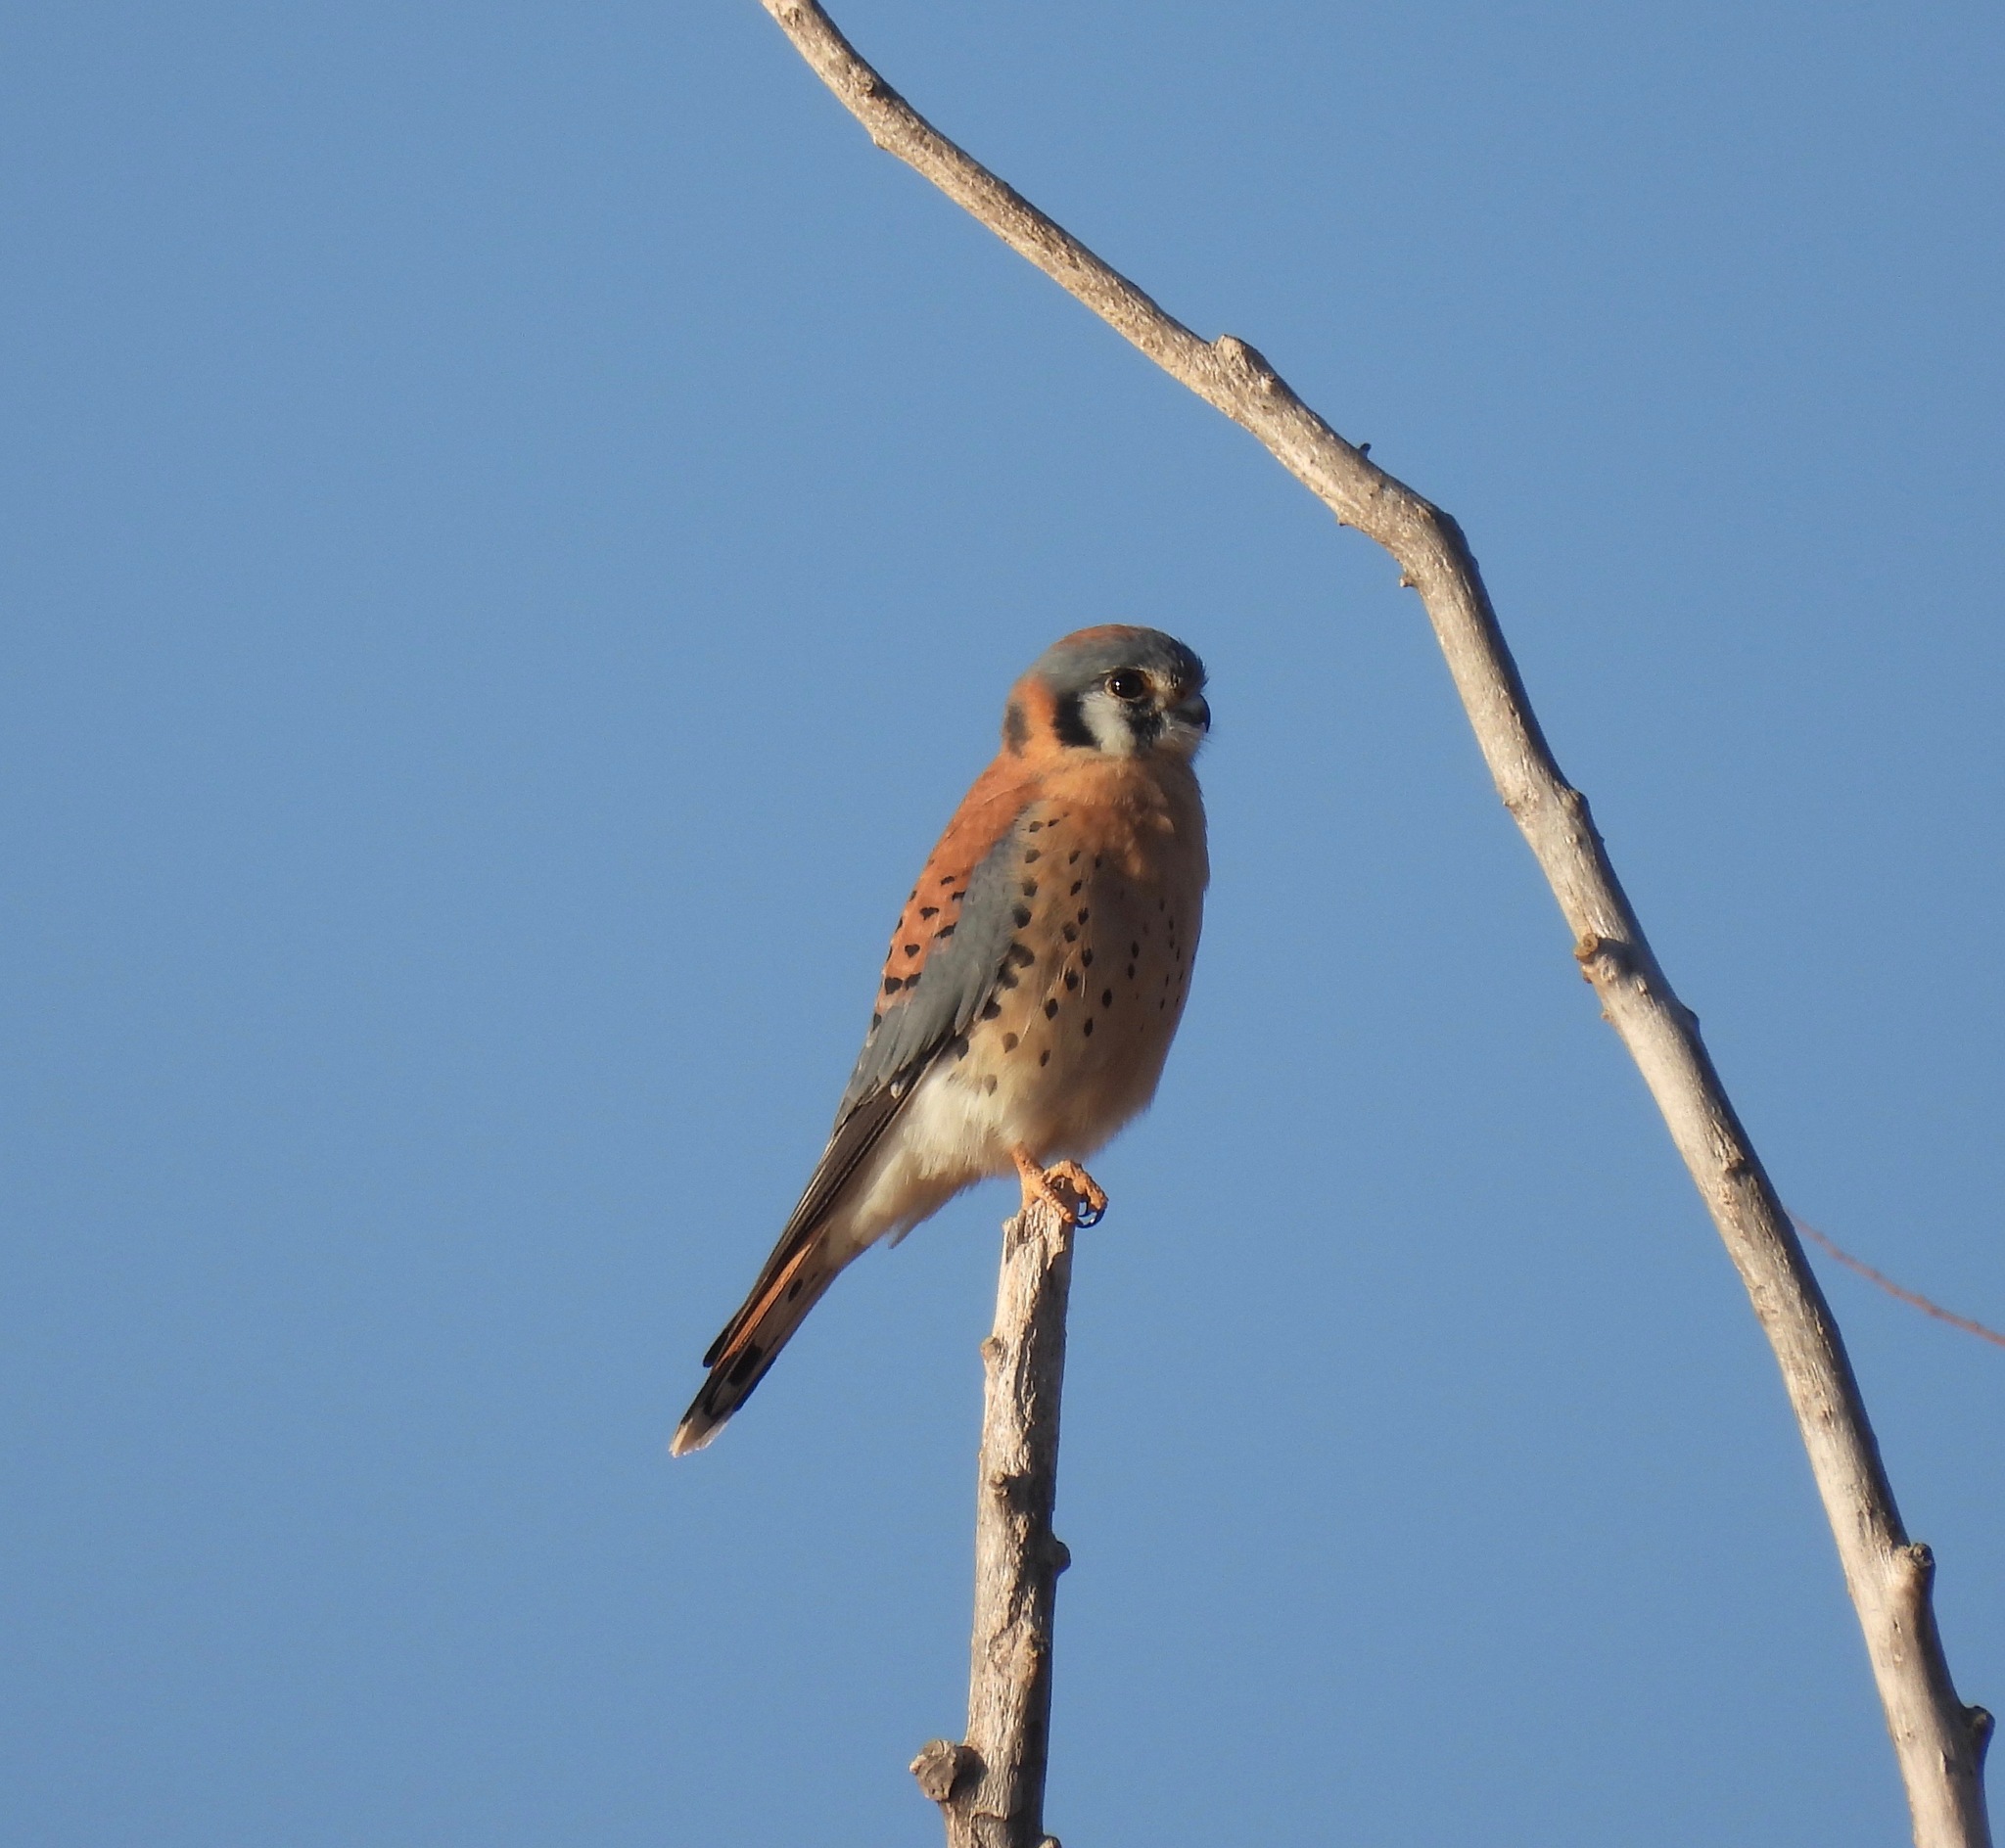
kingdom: Animalia
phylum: Chordata
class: Aves
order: Falconiformes
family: Falconidae
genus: Falco
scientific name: Falco sparverius
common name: American kestrel
